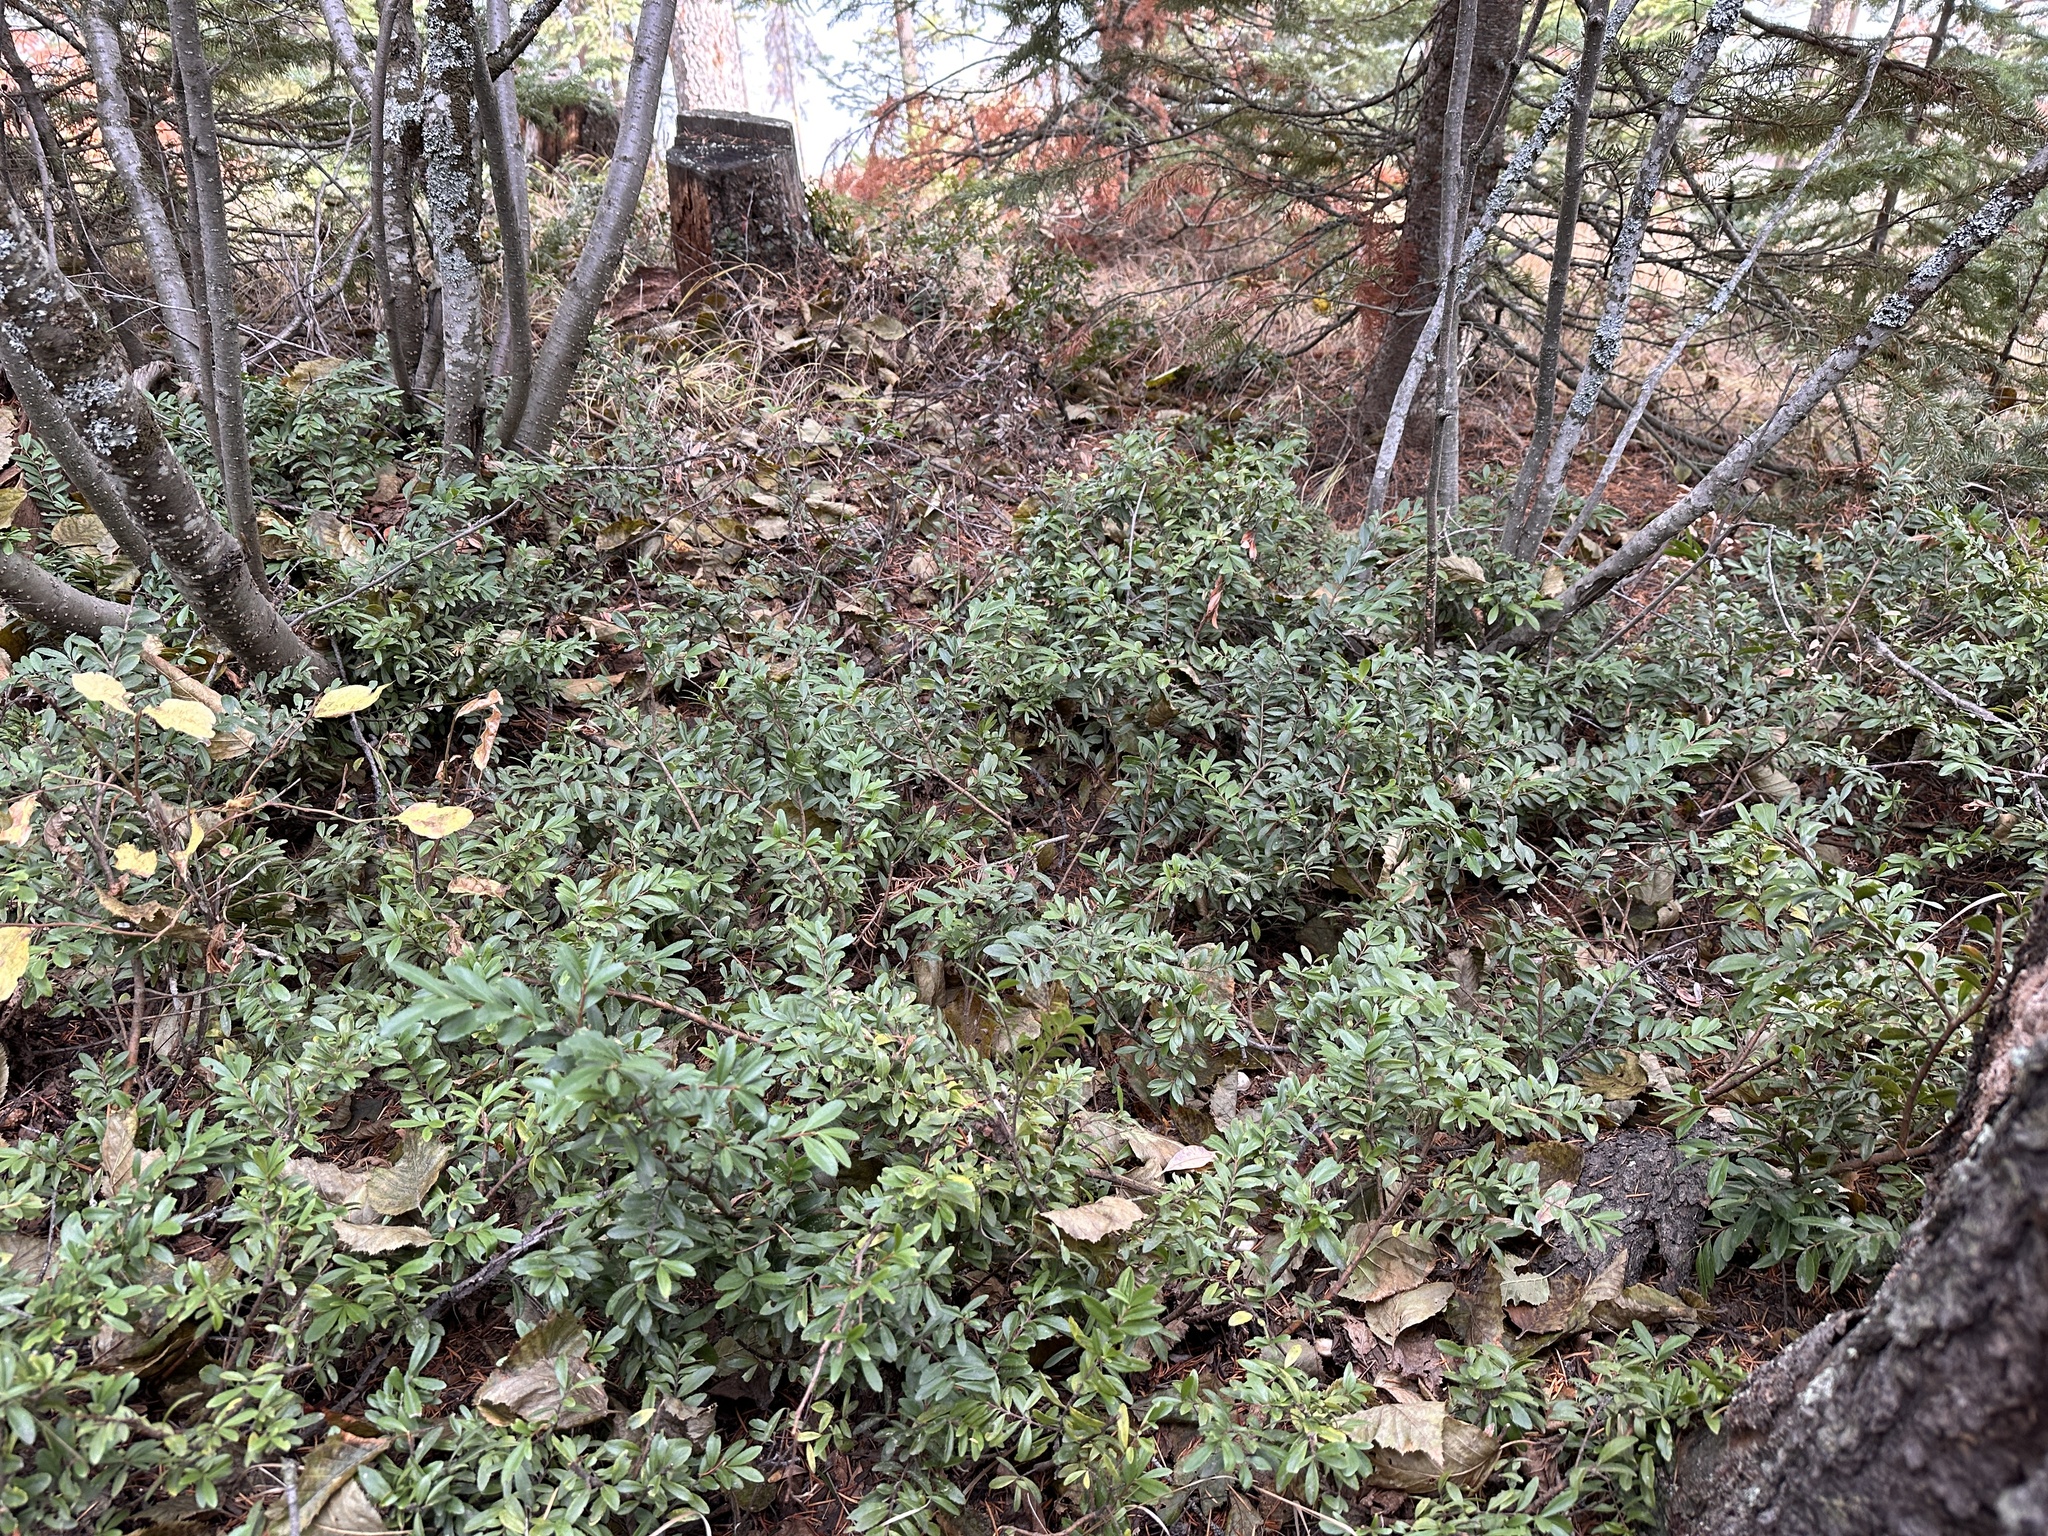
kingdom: Plantae
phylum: Tracheophyta
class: Magnoliopsida
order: Celastrales
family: Celastraceae
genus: Paxistima
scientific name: Paxistima myrsinites
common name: Mountain-lover
